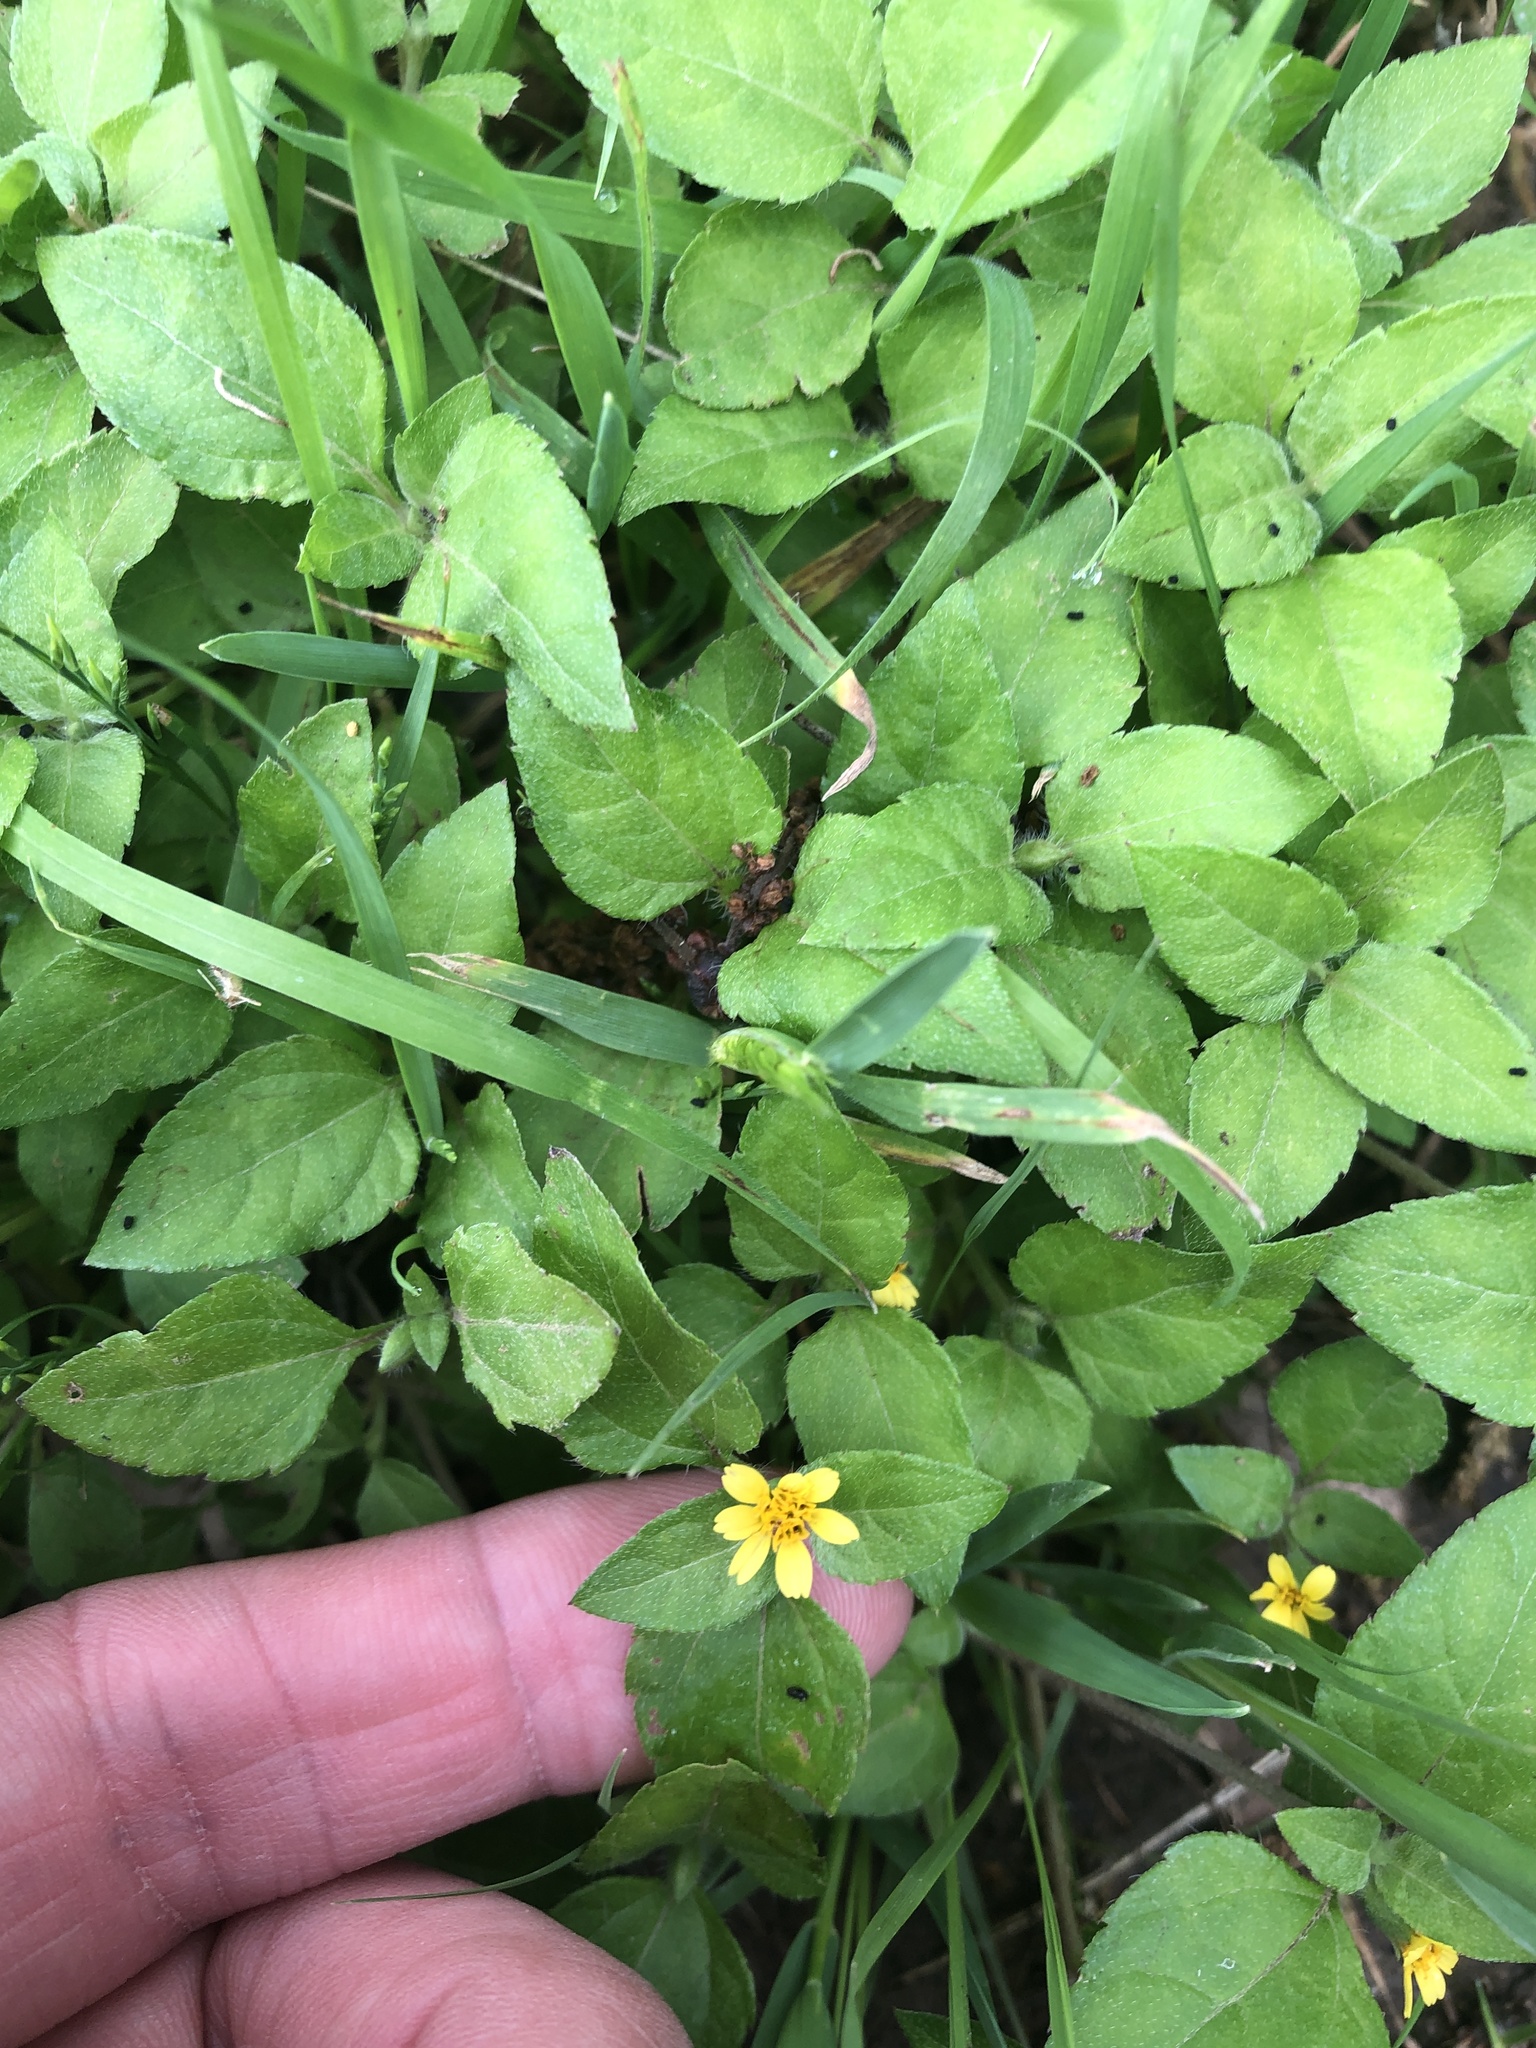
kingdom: Plantae
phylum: Tracheophyta
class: Magnoliopsida
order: Asterales
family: Asteraceae
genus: Calyptocarpus
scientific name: Calyptocarpus vialis
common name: Straggler daisy
